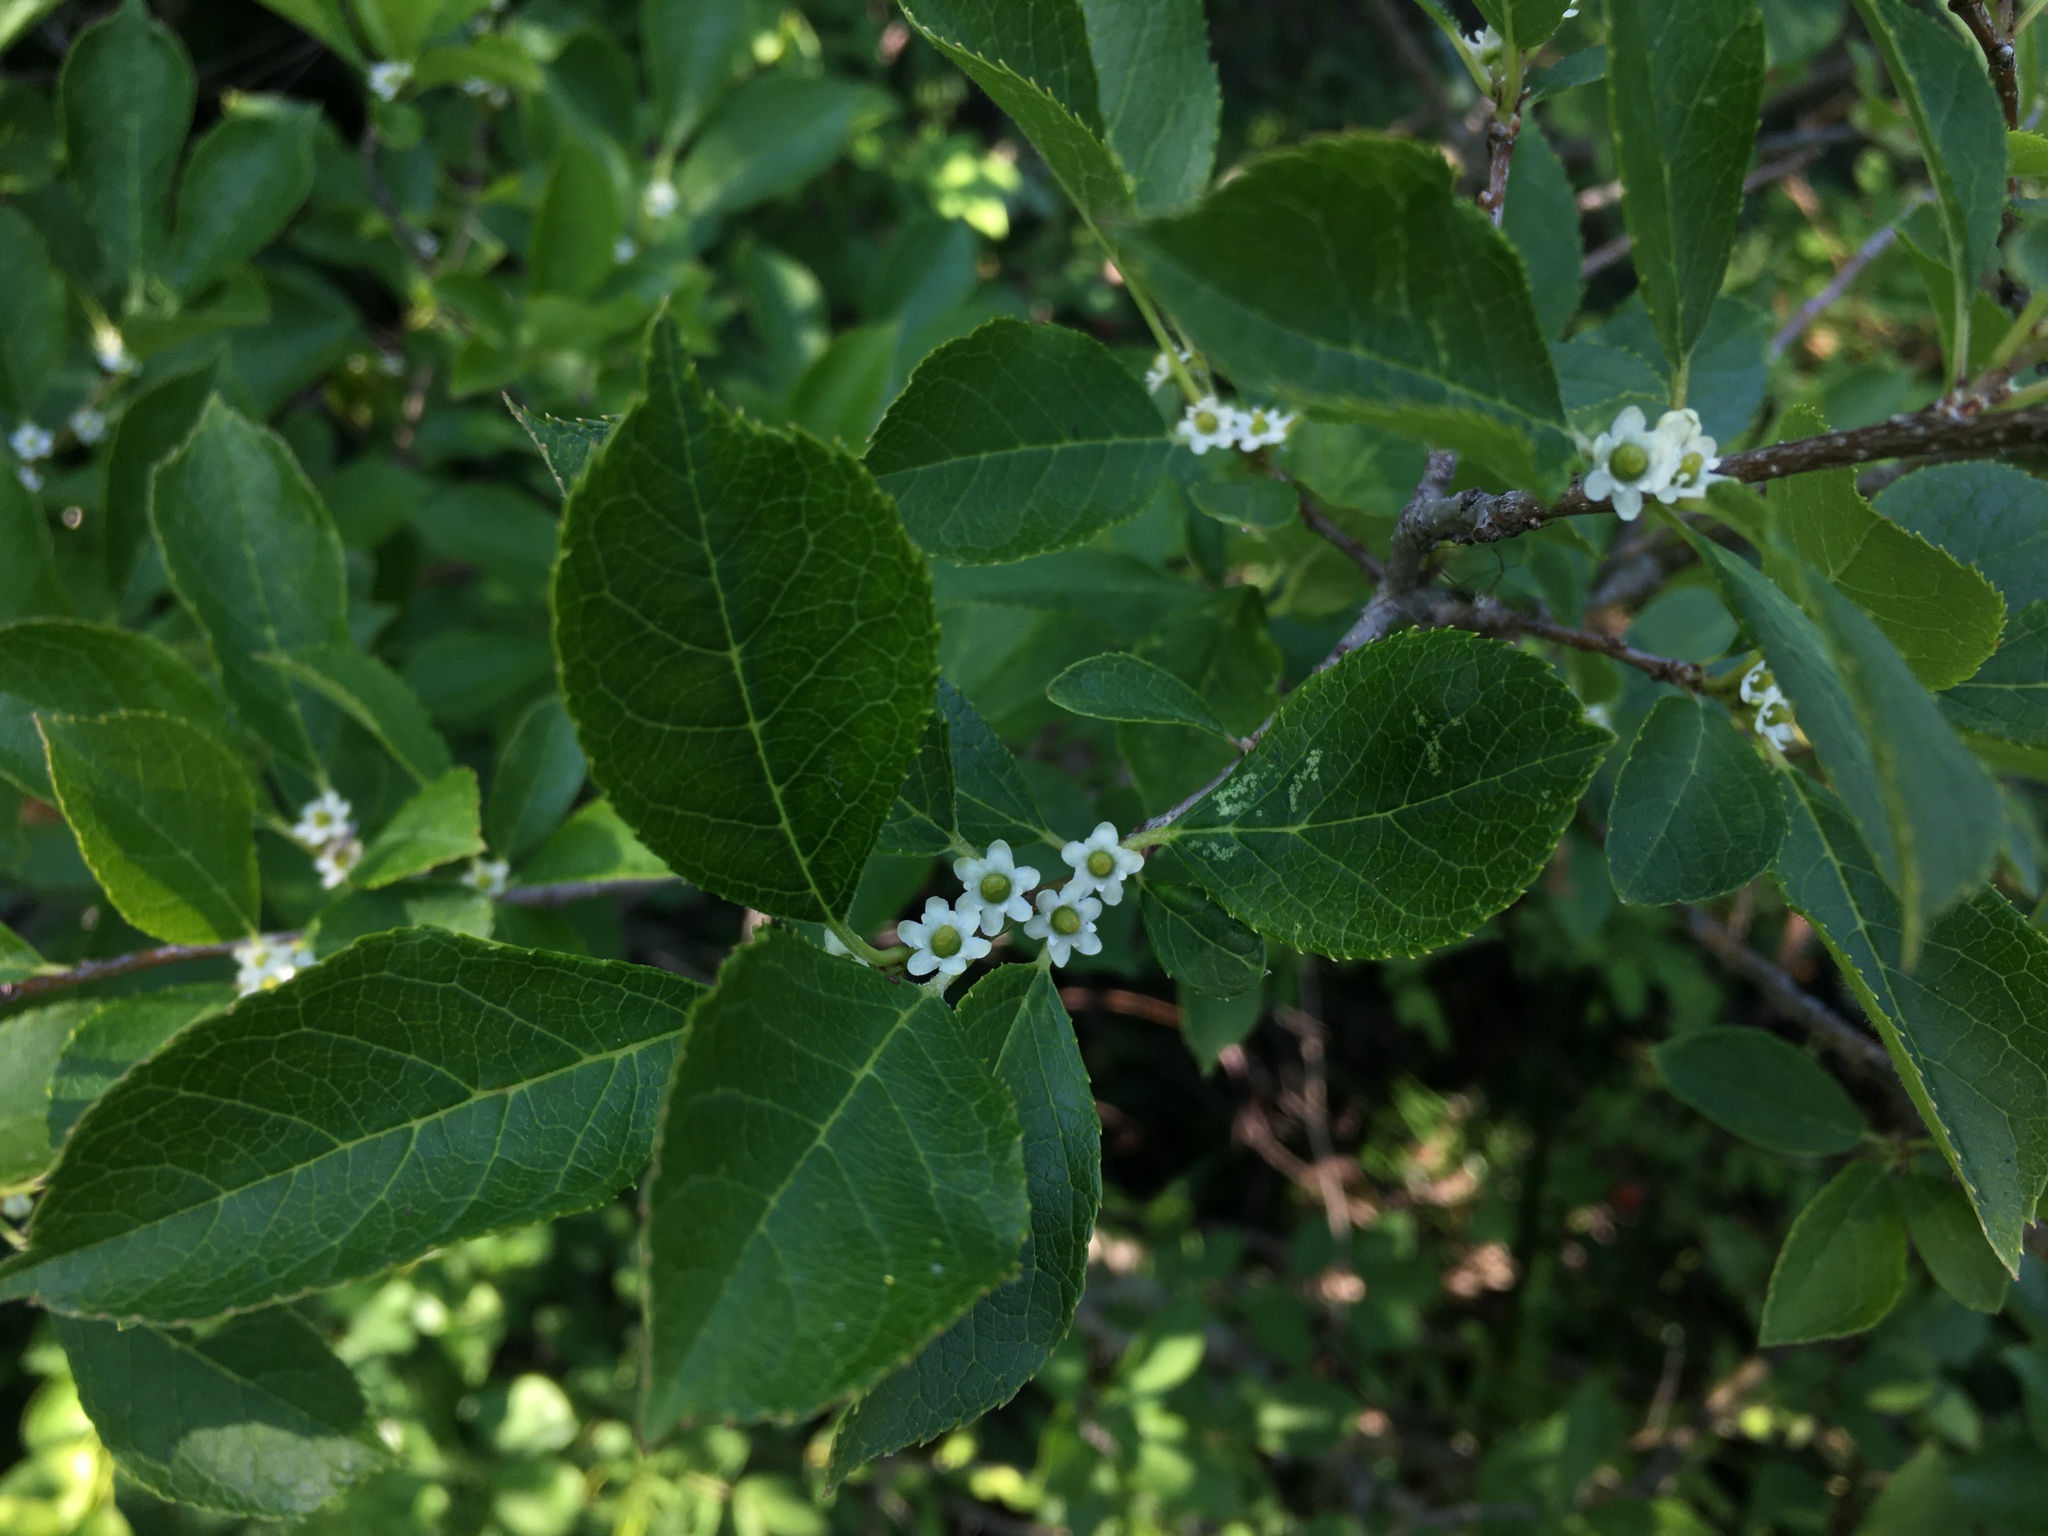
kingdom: Plantae
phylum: Tracheophyta
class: Magnoliopsida
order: Aquifoliales
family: Aquifoliaceae
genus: Ilex
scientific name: Ilex verticillata
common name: Virginia winterberry
